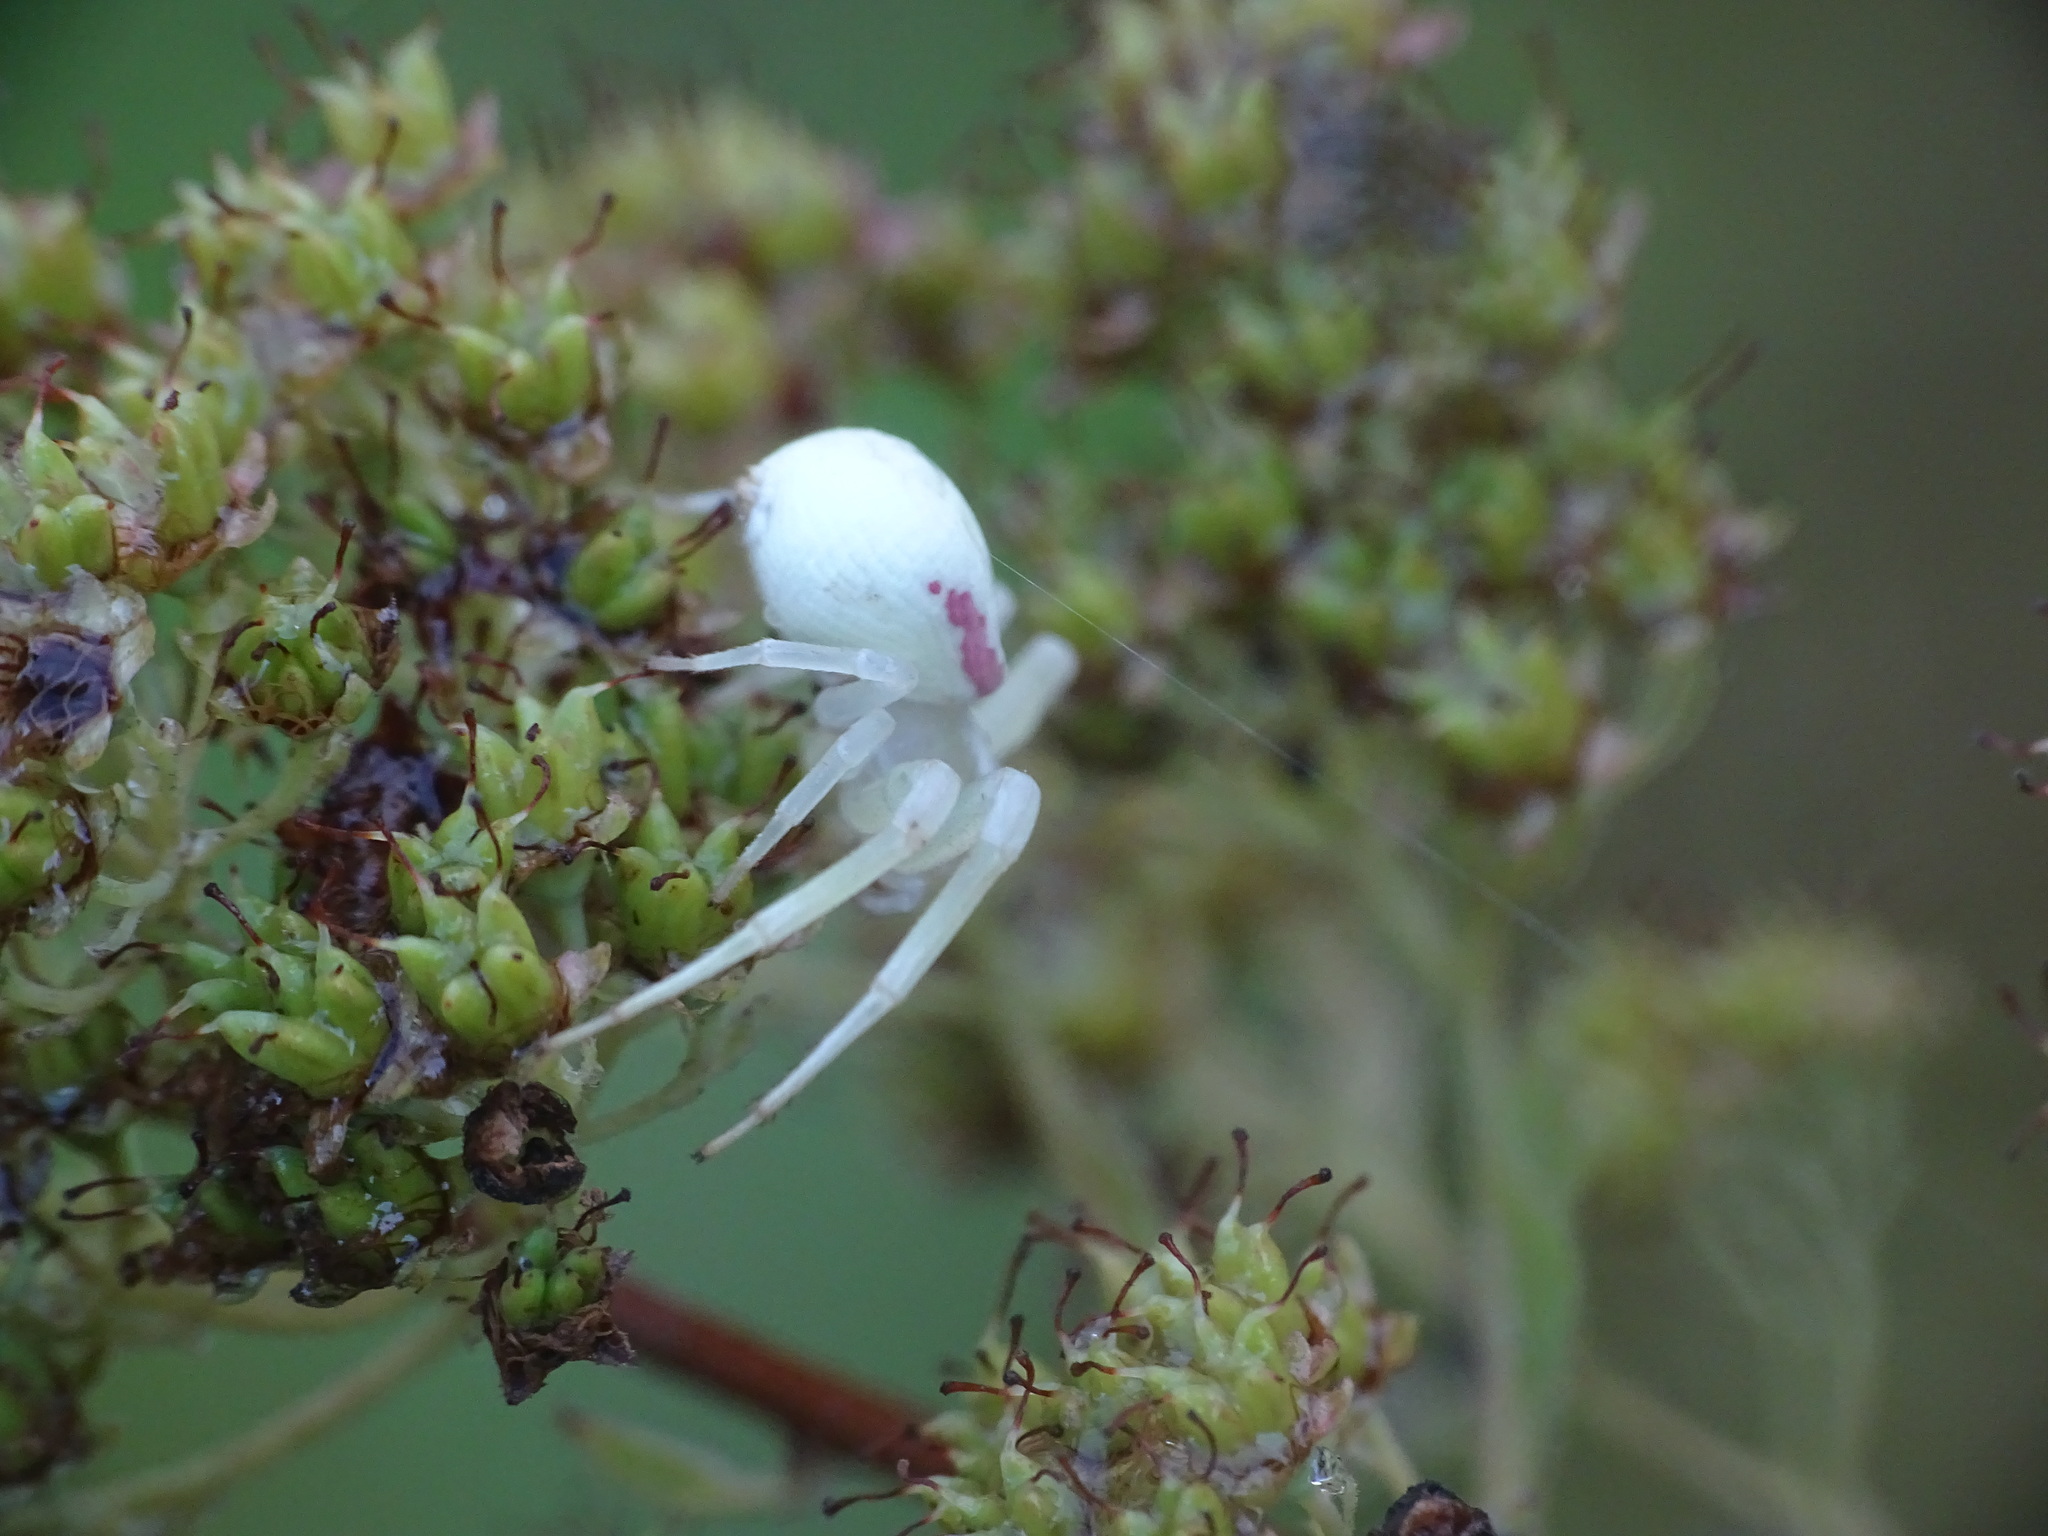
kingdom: Animalia
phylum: Arthropoda
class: Arachnida
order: Araneae
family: Thomisidae
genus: Misumena
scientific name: Misumena vatia
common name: Goldenrod crab spider
